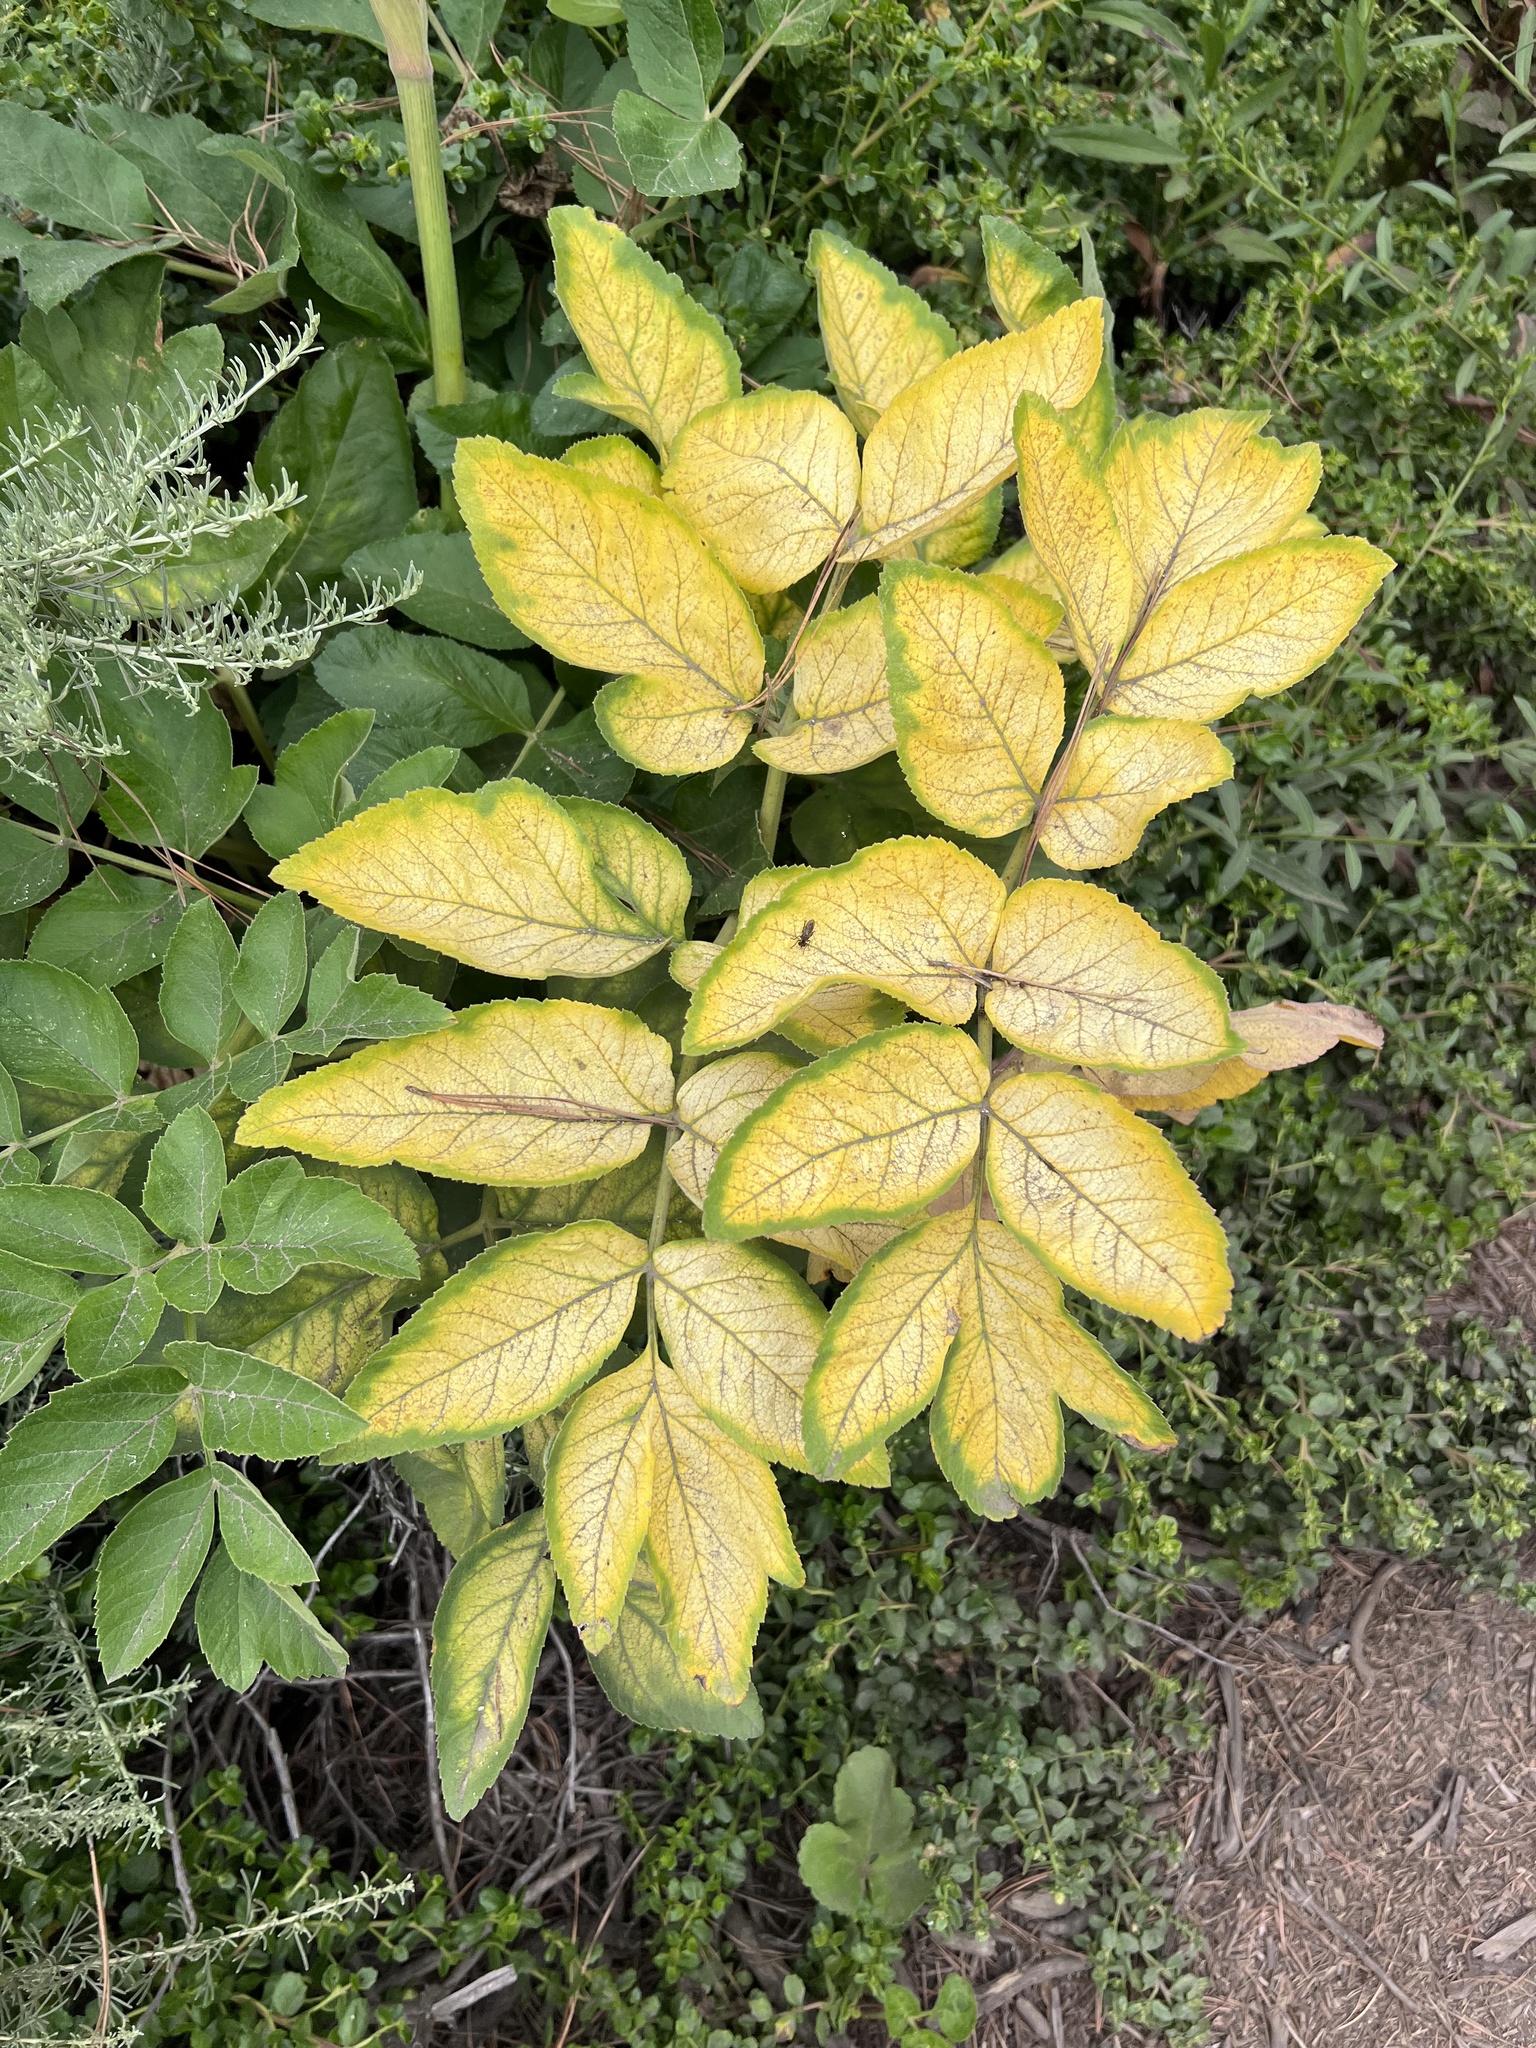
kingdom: Plantae
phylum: Tracheophyta
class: Magnoliopsida
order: Apiales
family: Apiaceae
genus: Angelica
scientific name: Angelica hendersonii
